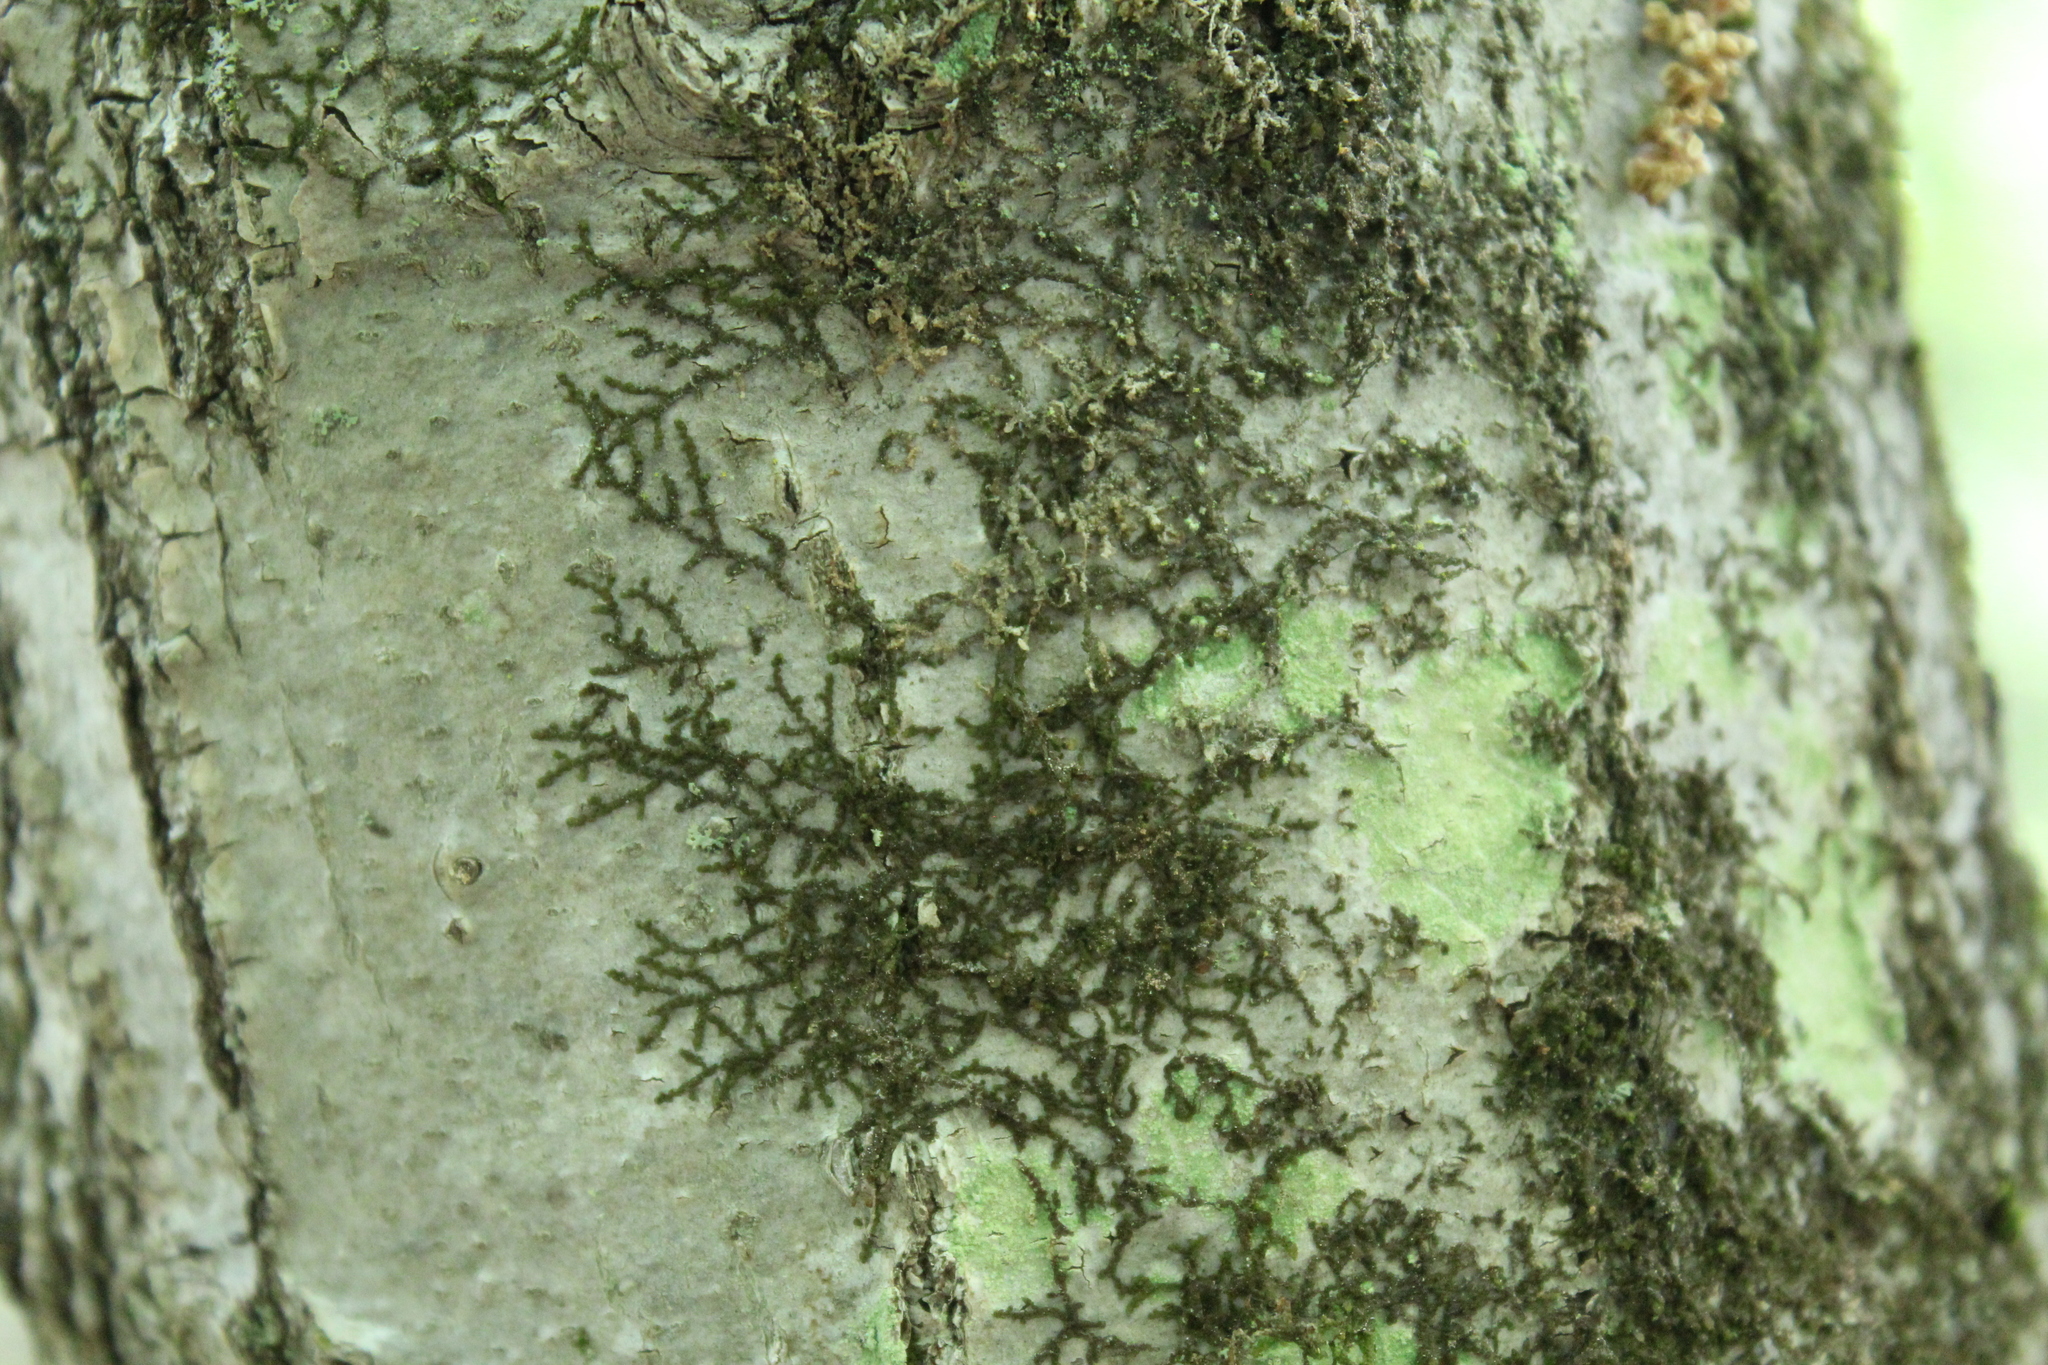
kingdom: Plantae
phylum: Marchantiophyta
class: Jungermanniopsida
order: Porellales
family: Frullaniaceae
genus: Frullania
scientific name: Frullania eboracensis
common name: New york scalewort
